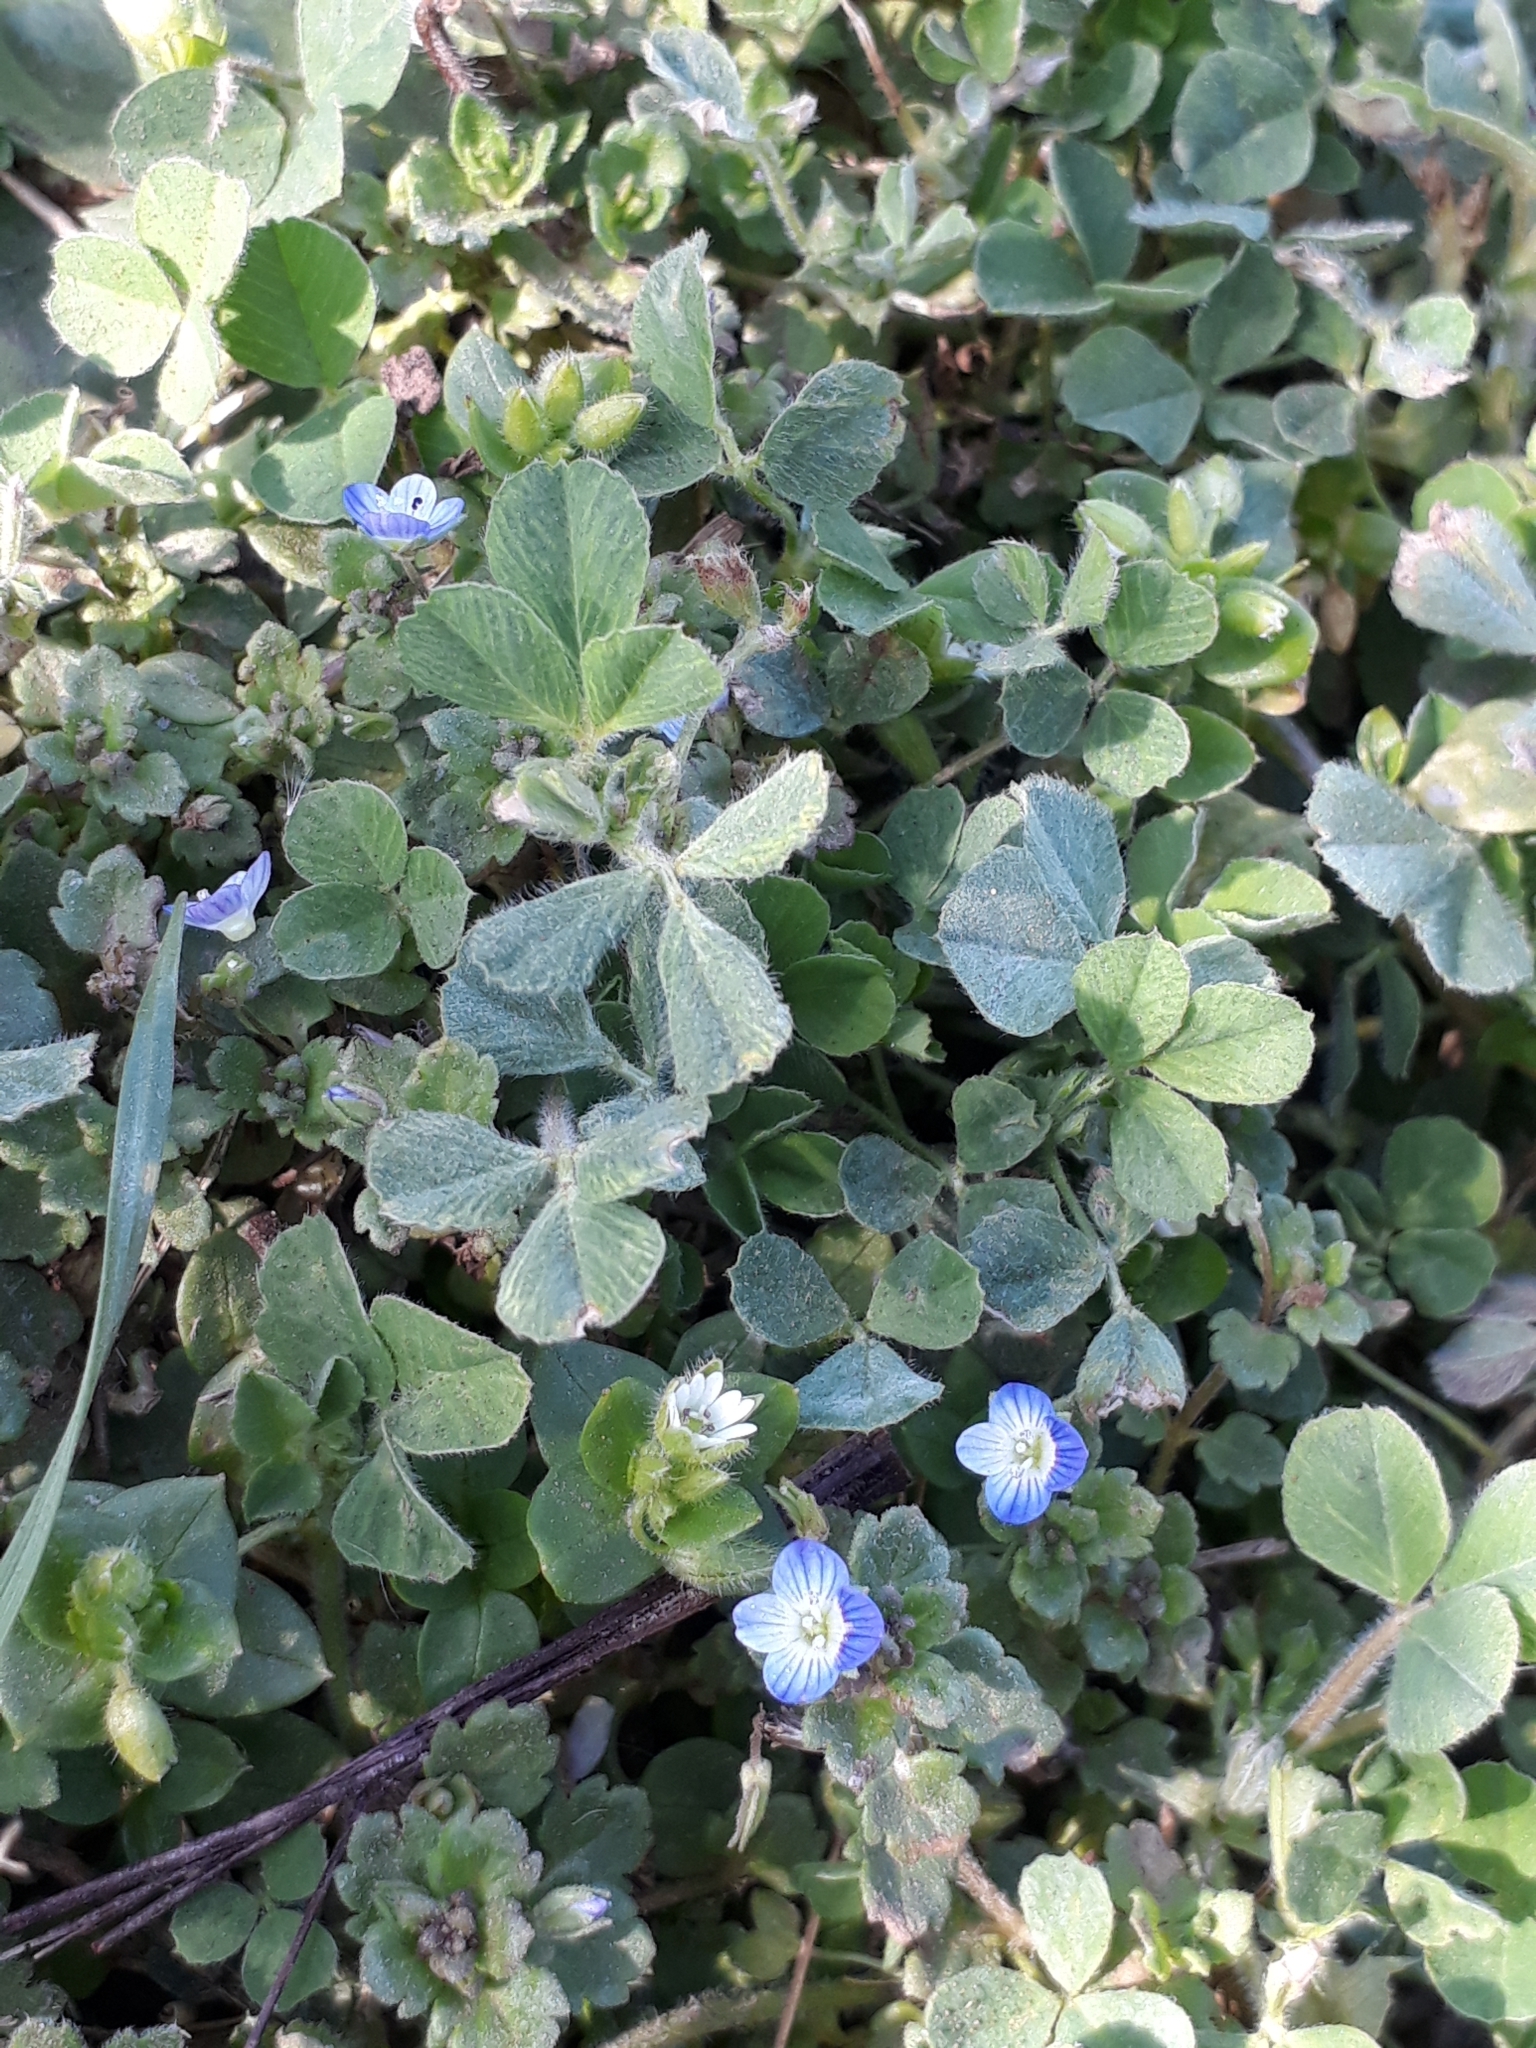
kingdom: Plantae
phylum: Tracheophyta
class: Magnoliopsida
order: Lamiales
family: Plantaginaceae
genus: Veronica
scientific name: Veronica persica
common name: Common field-speedwell
